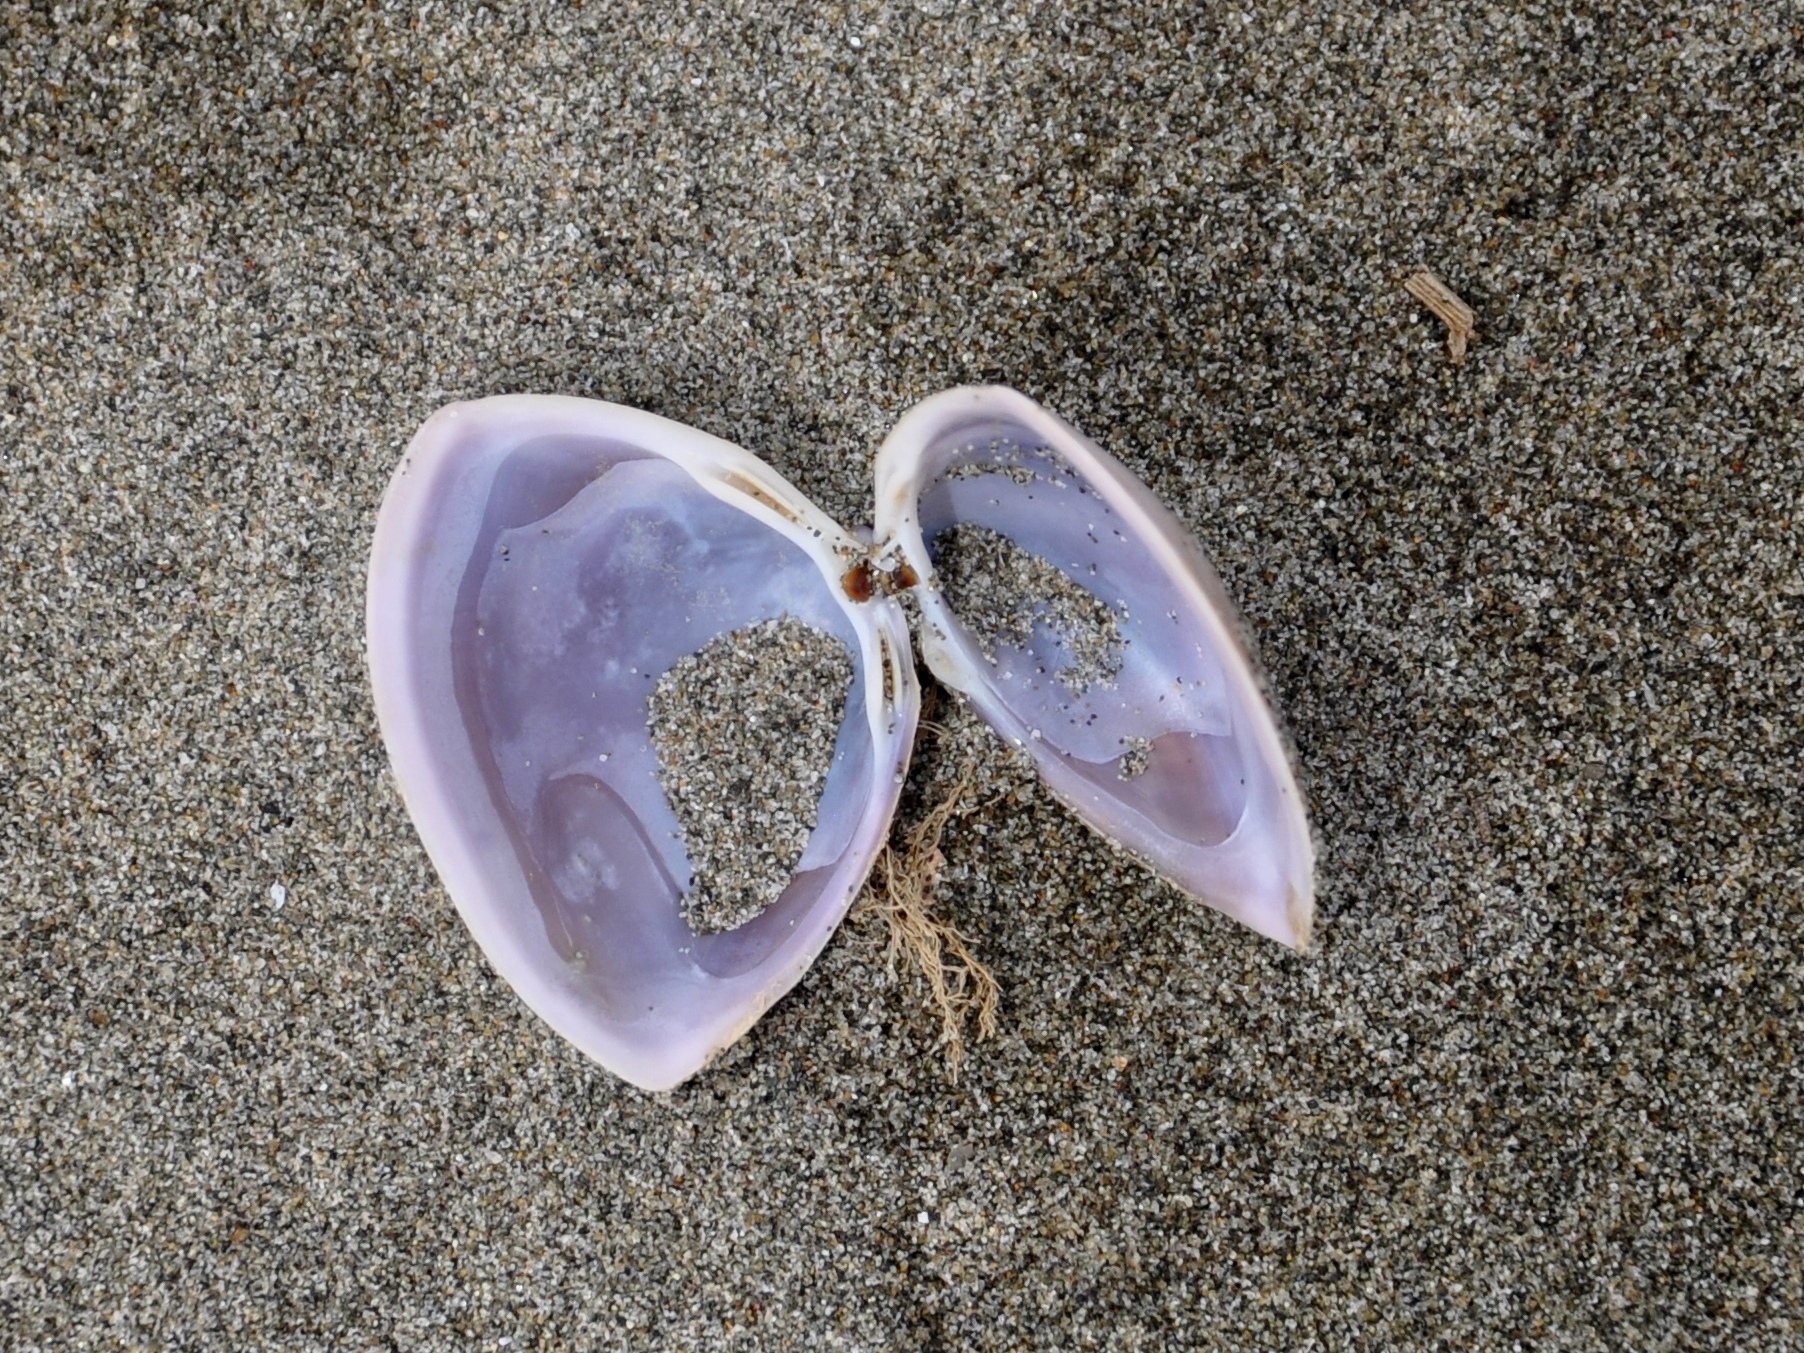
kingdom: Animalia
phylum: Mollusca
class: Bivalvia
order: Venerida
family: Mactridae
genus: Crassula
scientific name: Crassula aequilatera
